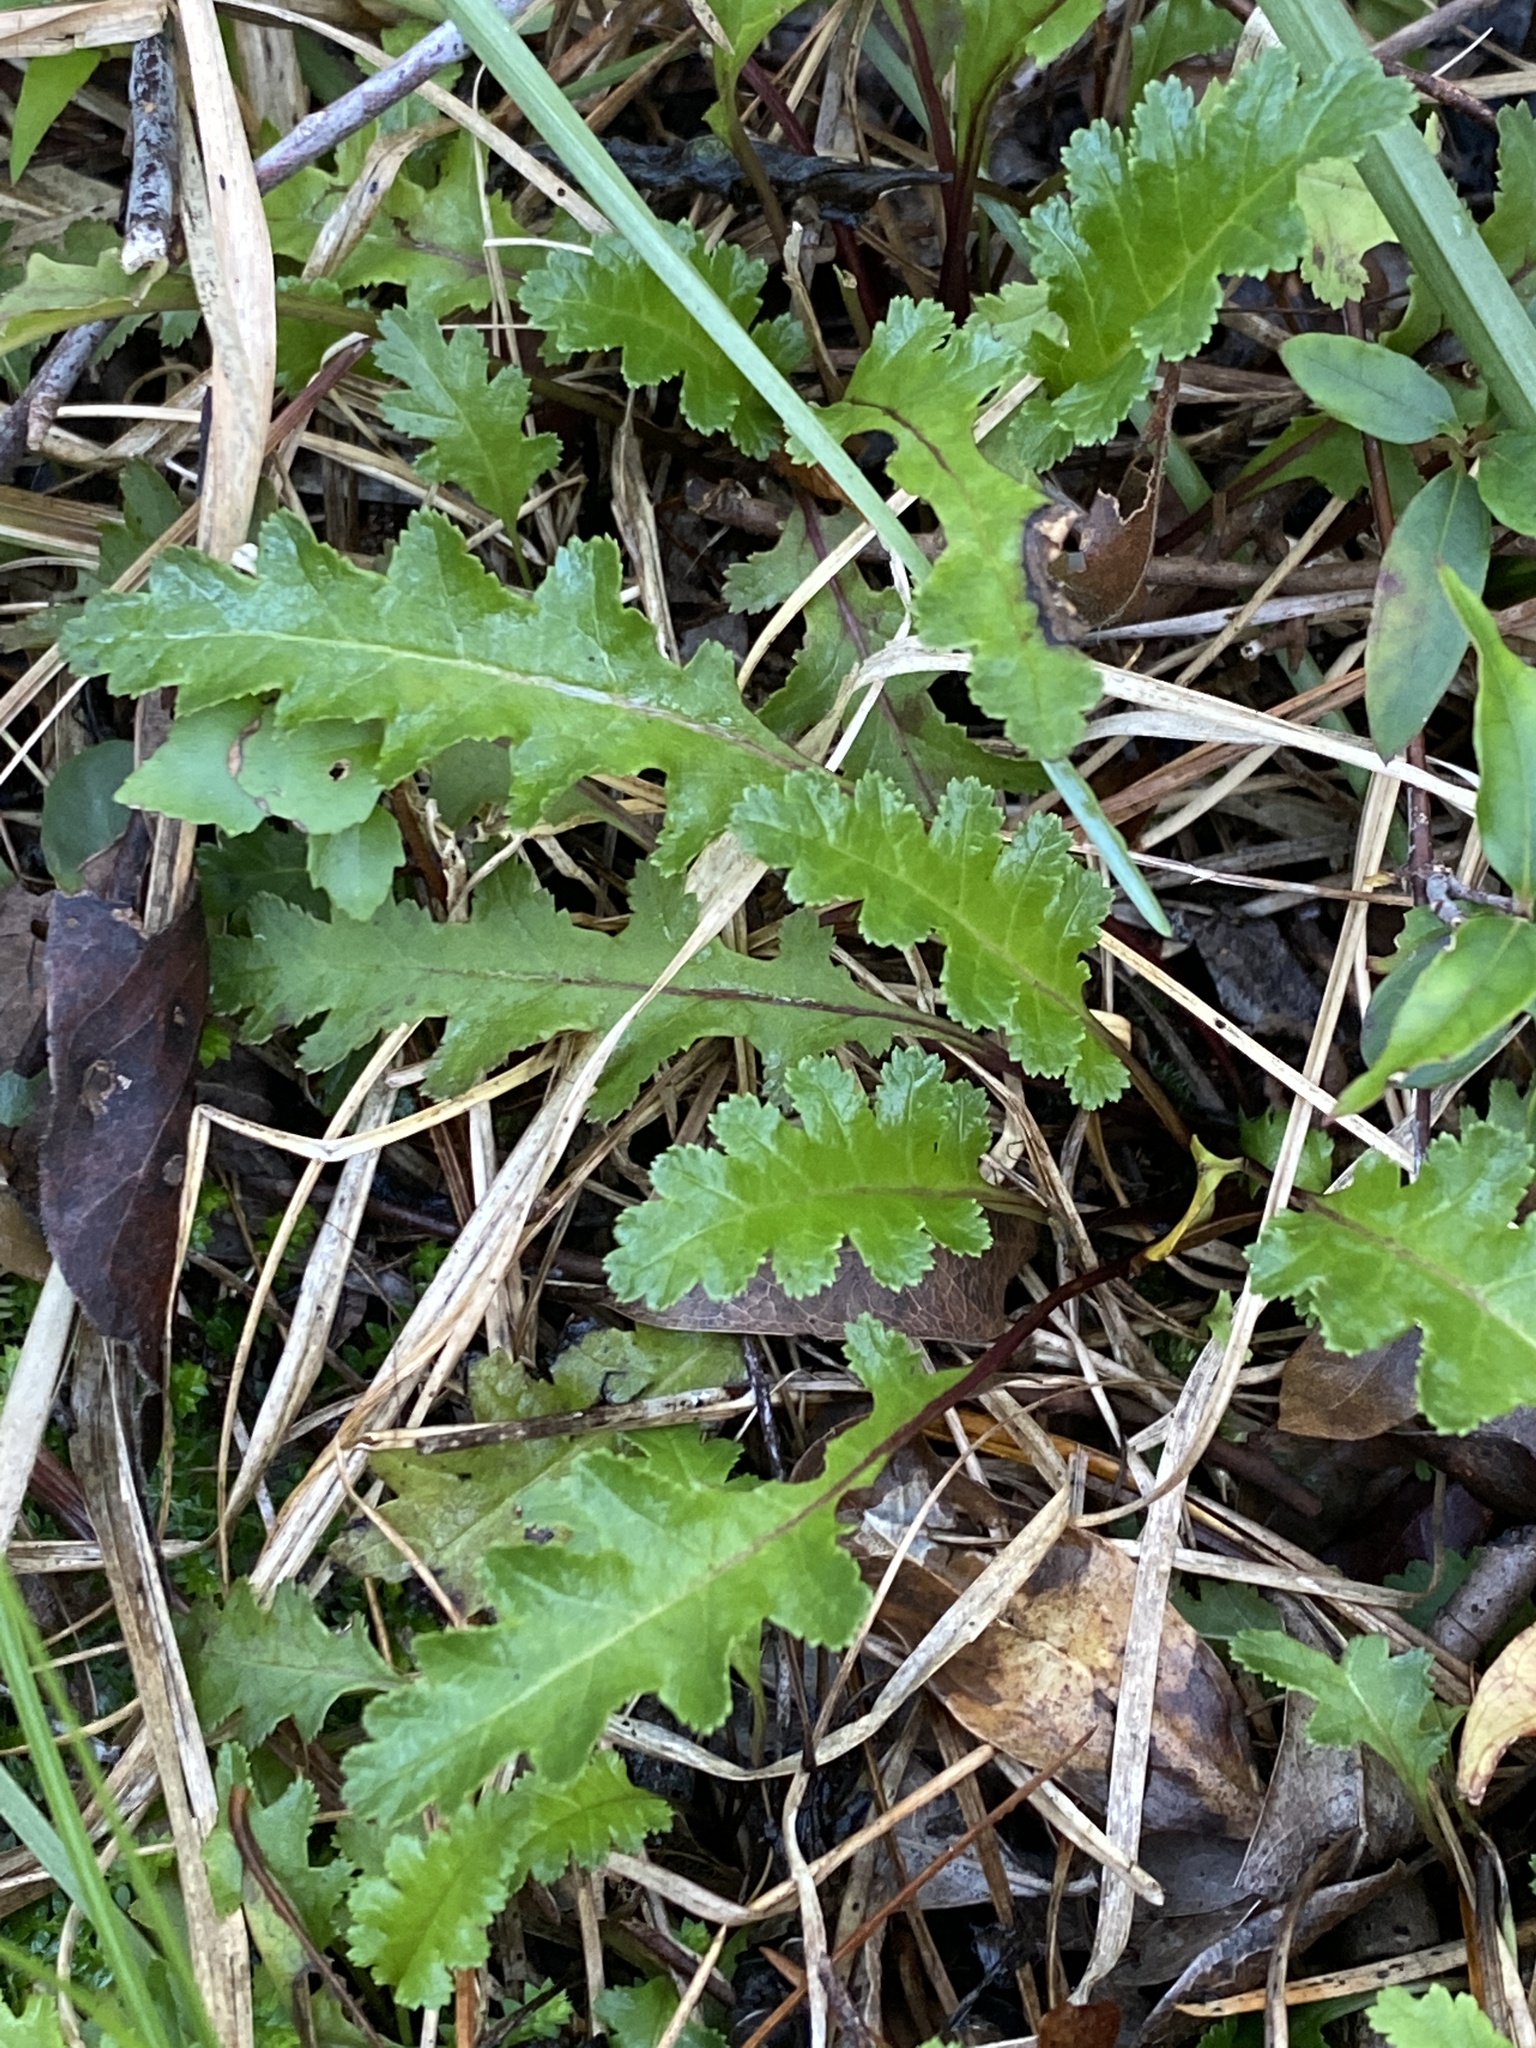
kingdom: Plantae
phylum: Tracheophyta
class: Magnoliopsida
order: Lamiales
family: Orobanchaceae
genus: Pedicularis
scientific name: Pedicularis canadensis
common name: Early lousewort
